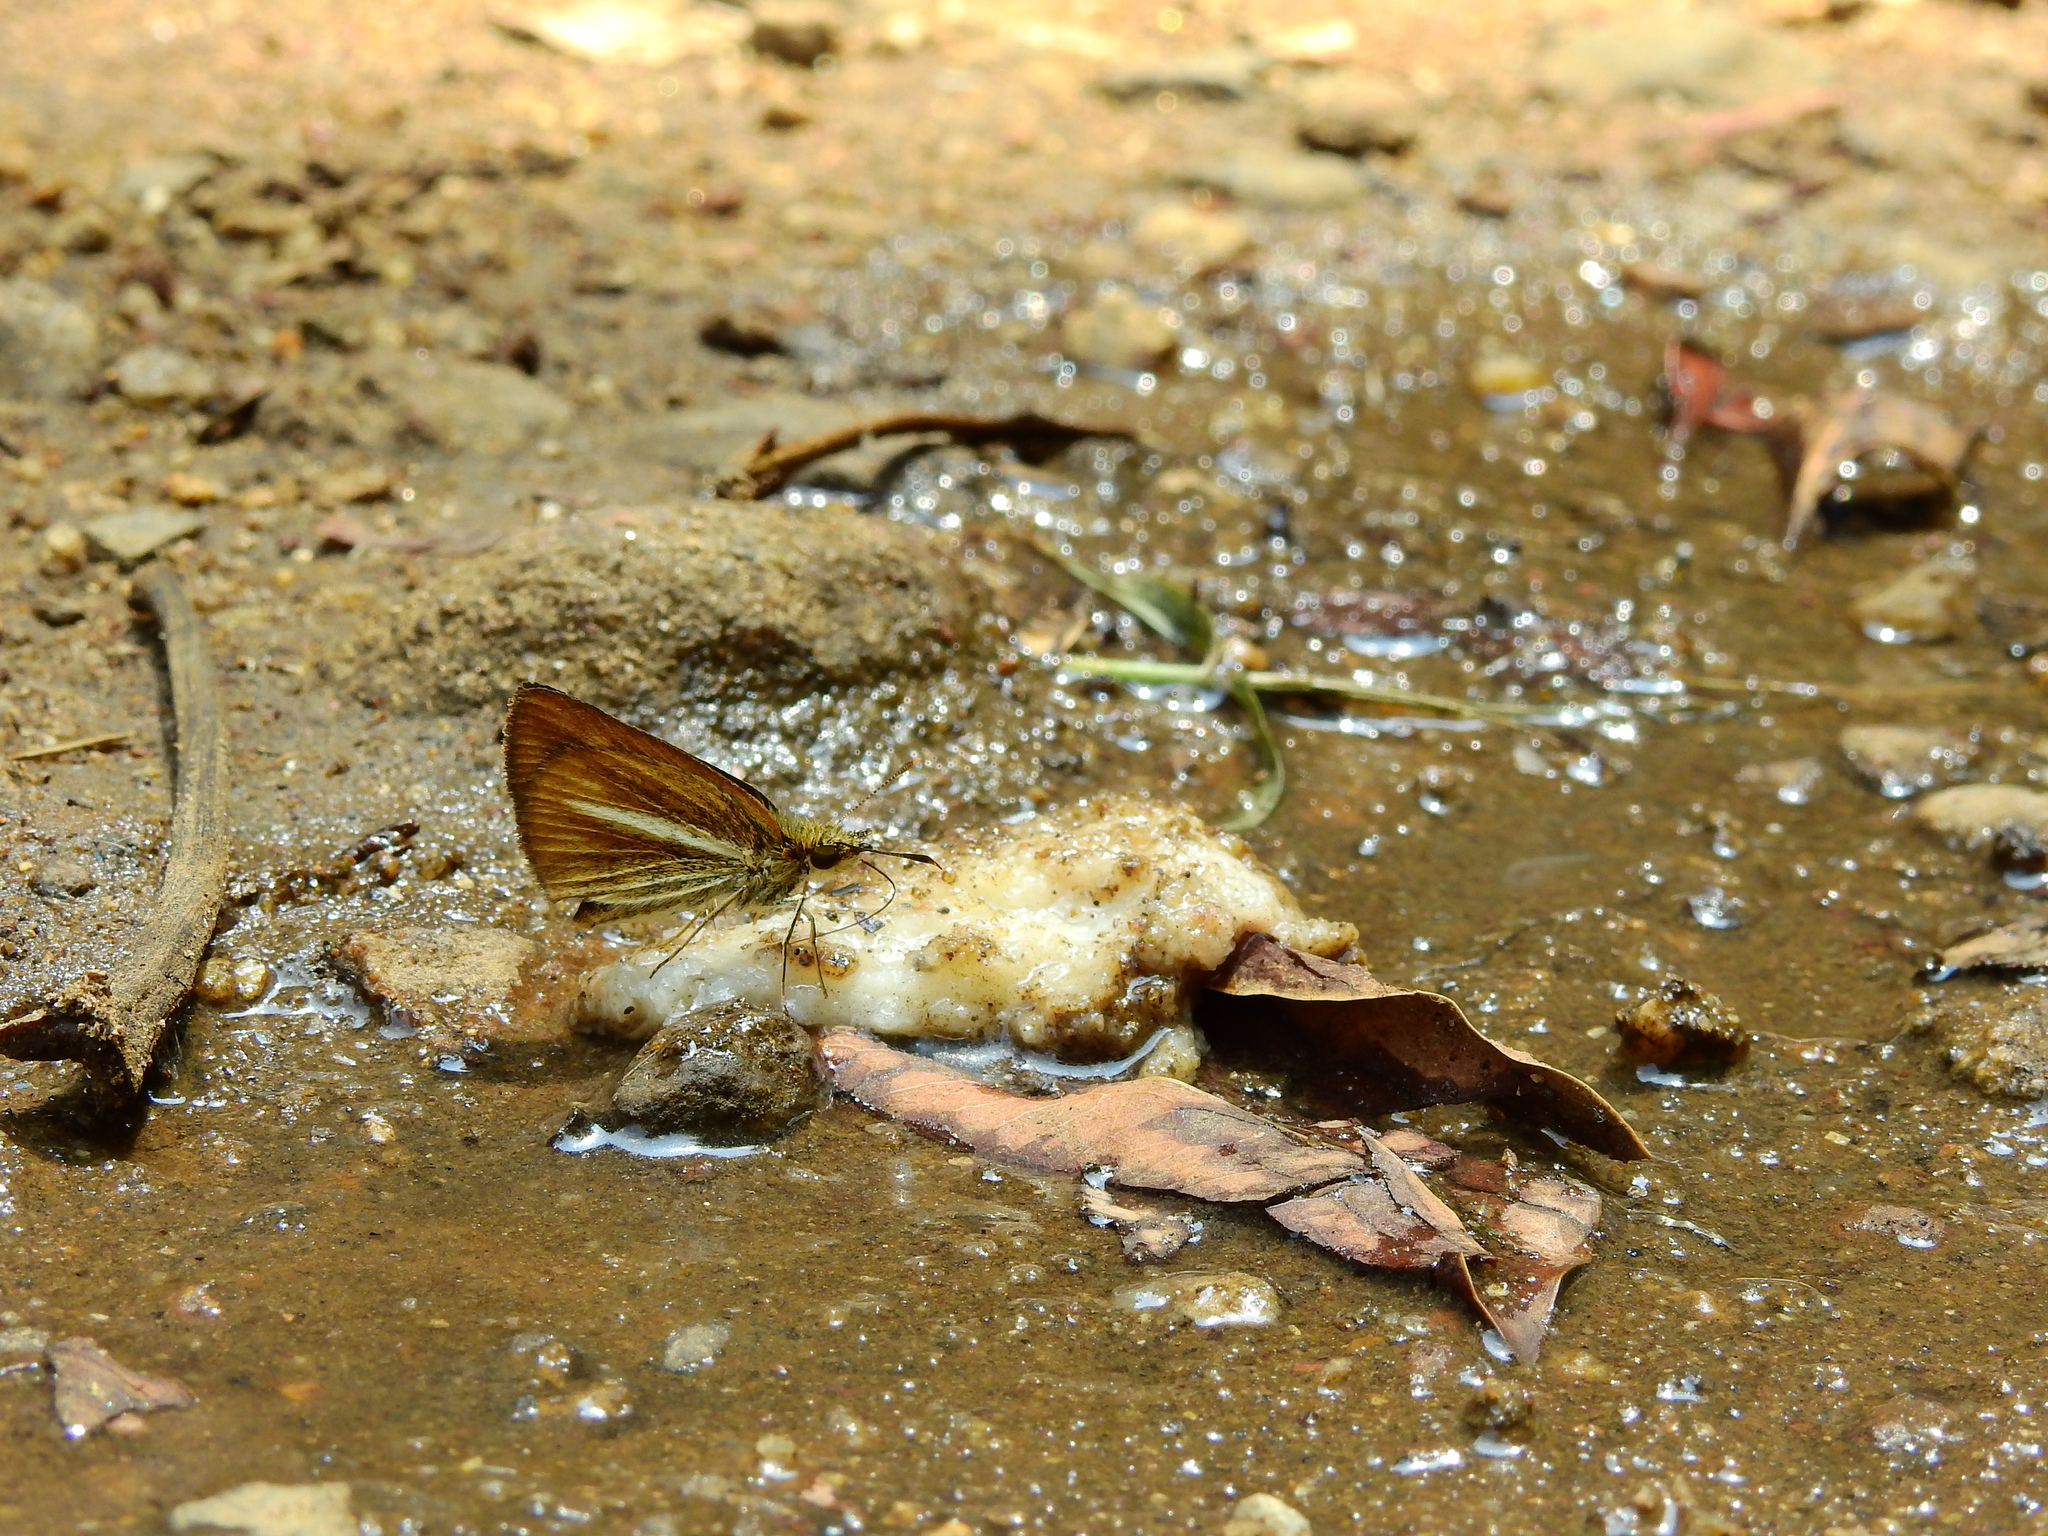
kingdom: Animalia
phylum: Arthropoda
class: Insecta
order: Lepidoptera
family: Hesperiidae
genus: Baracus
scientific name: Baracus vittatus
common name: Hedge-hopper
